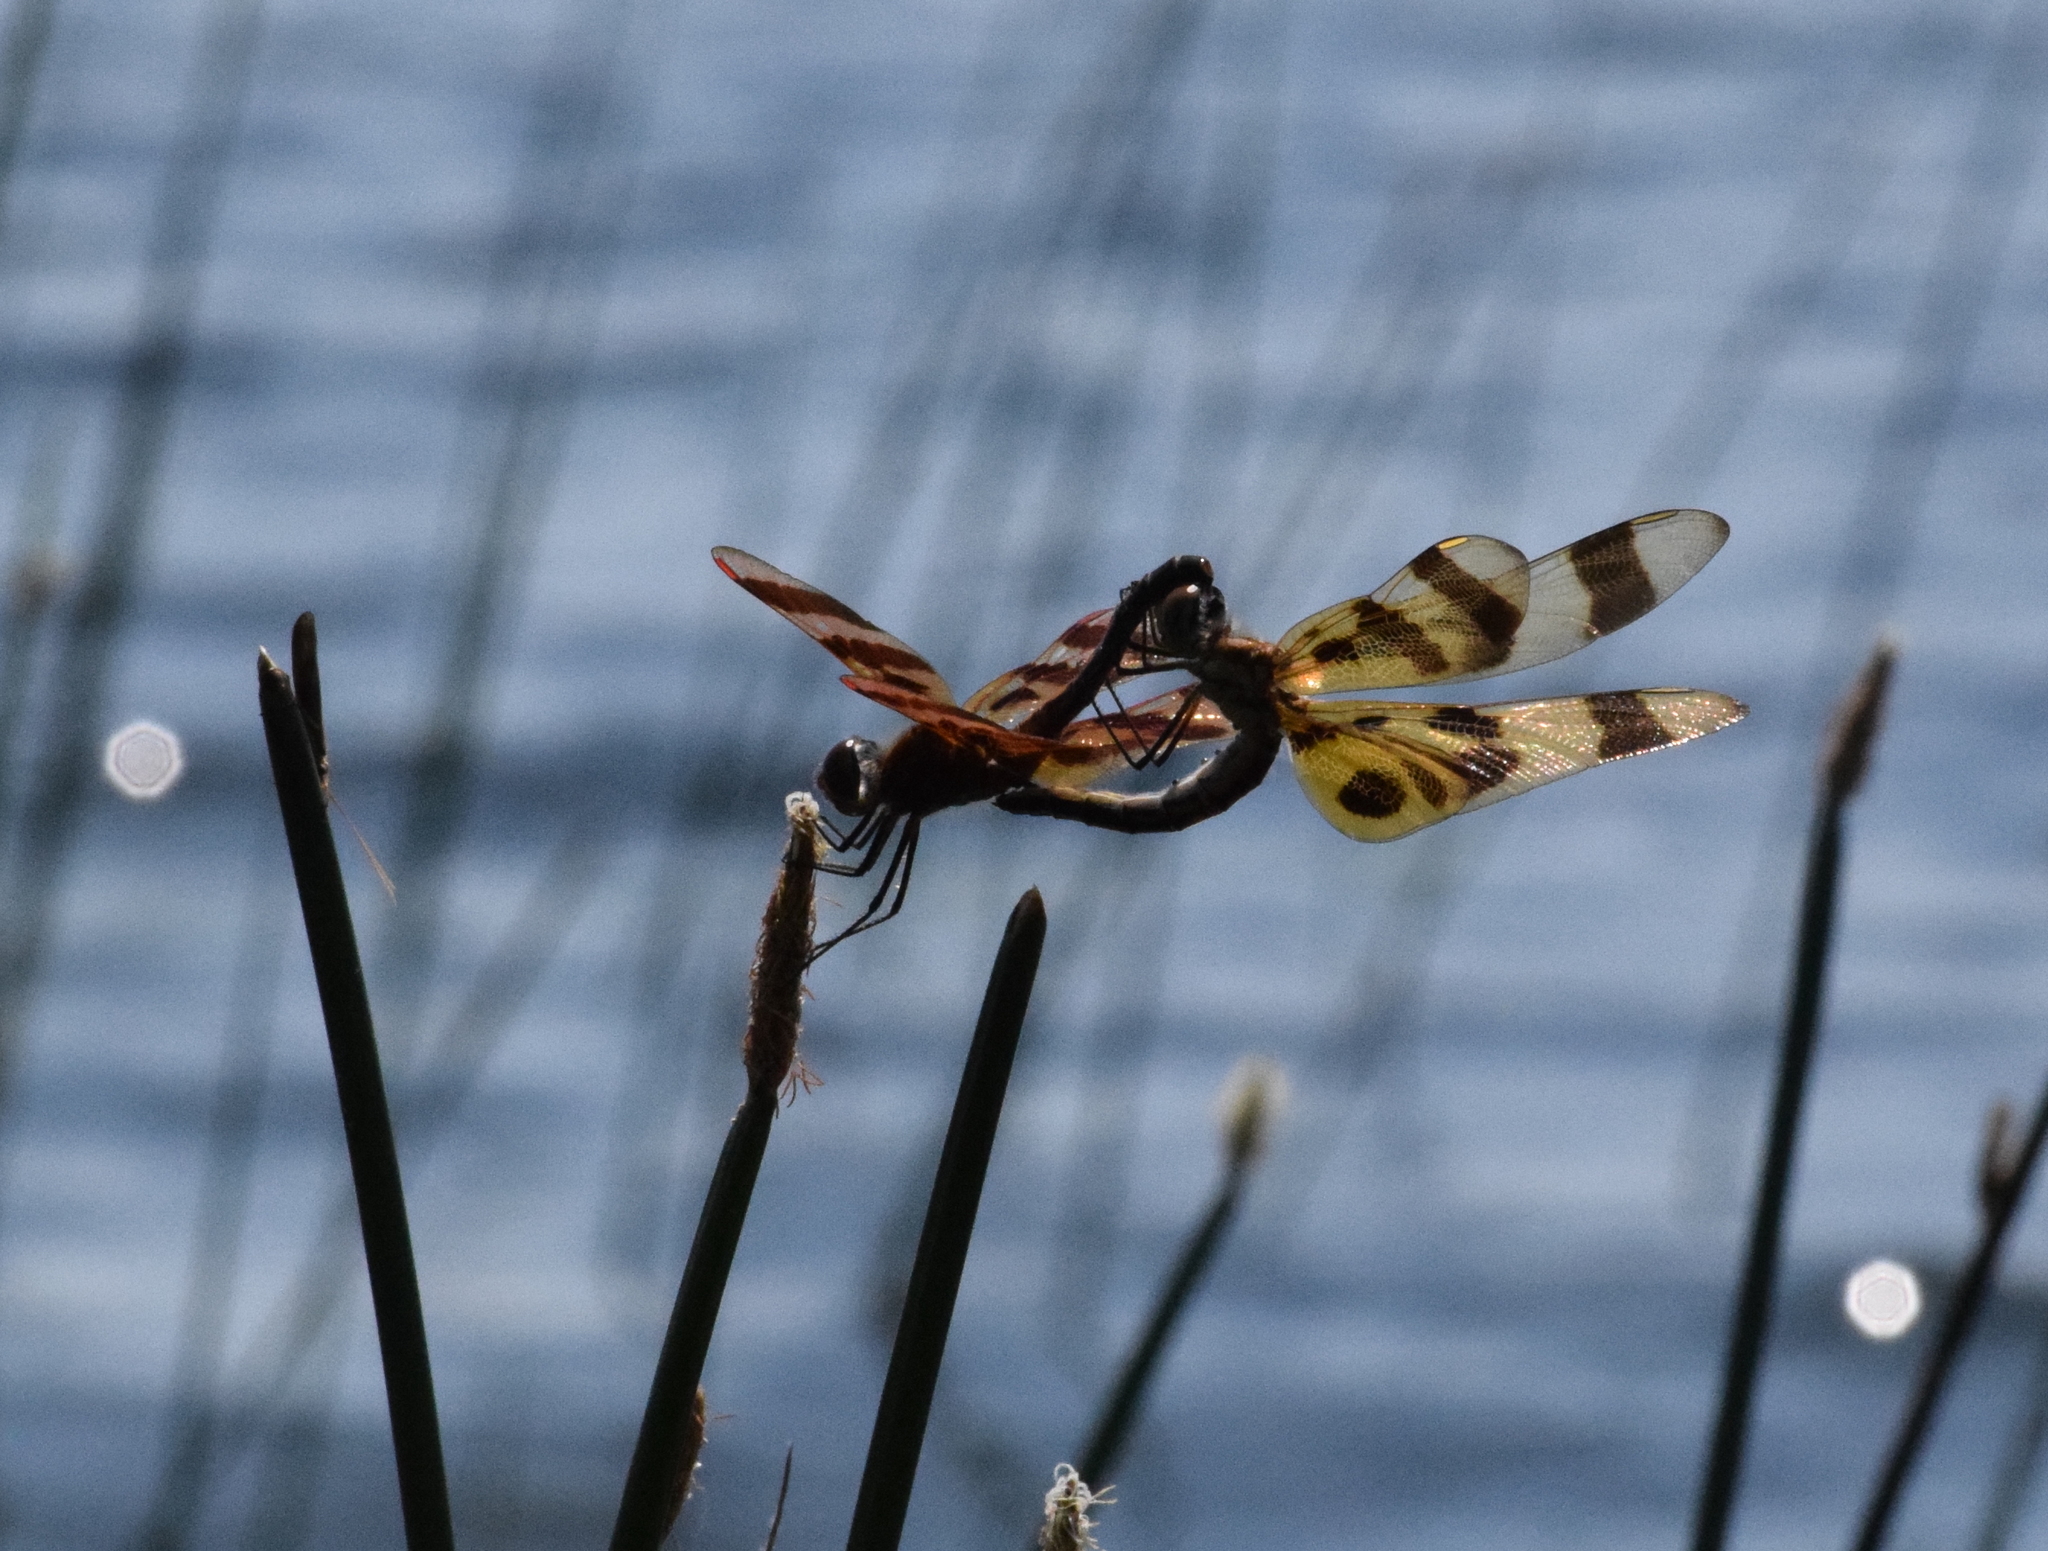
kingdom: Animalia
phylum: Arthropoda
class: Insecta
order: Odonata
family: Libellulidae
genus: Celithemis
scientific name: Celithemis eponina
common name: Halloween pennant
